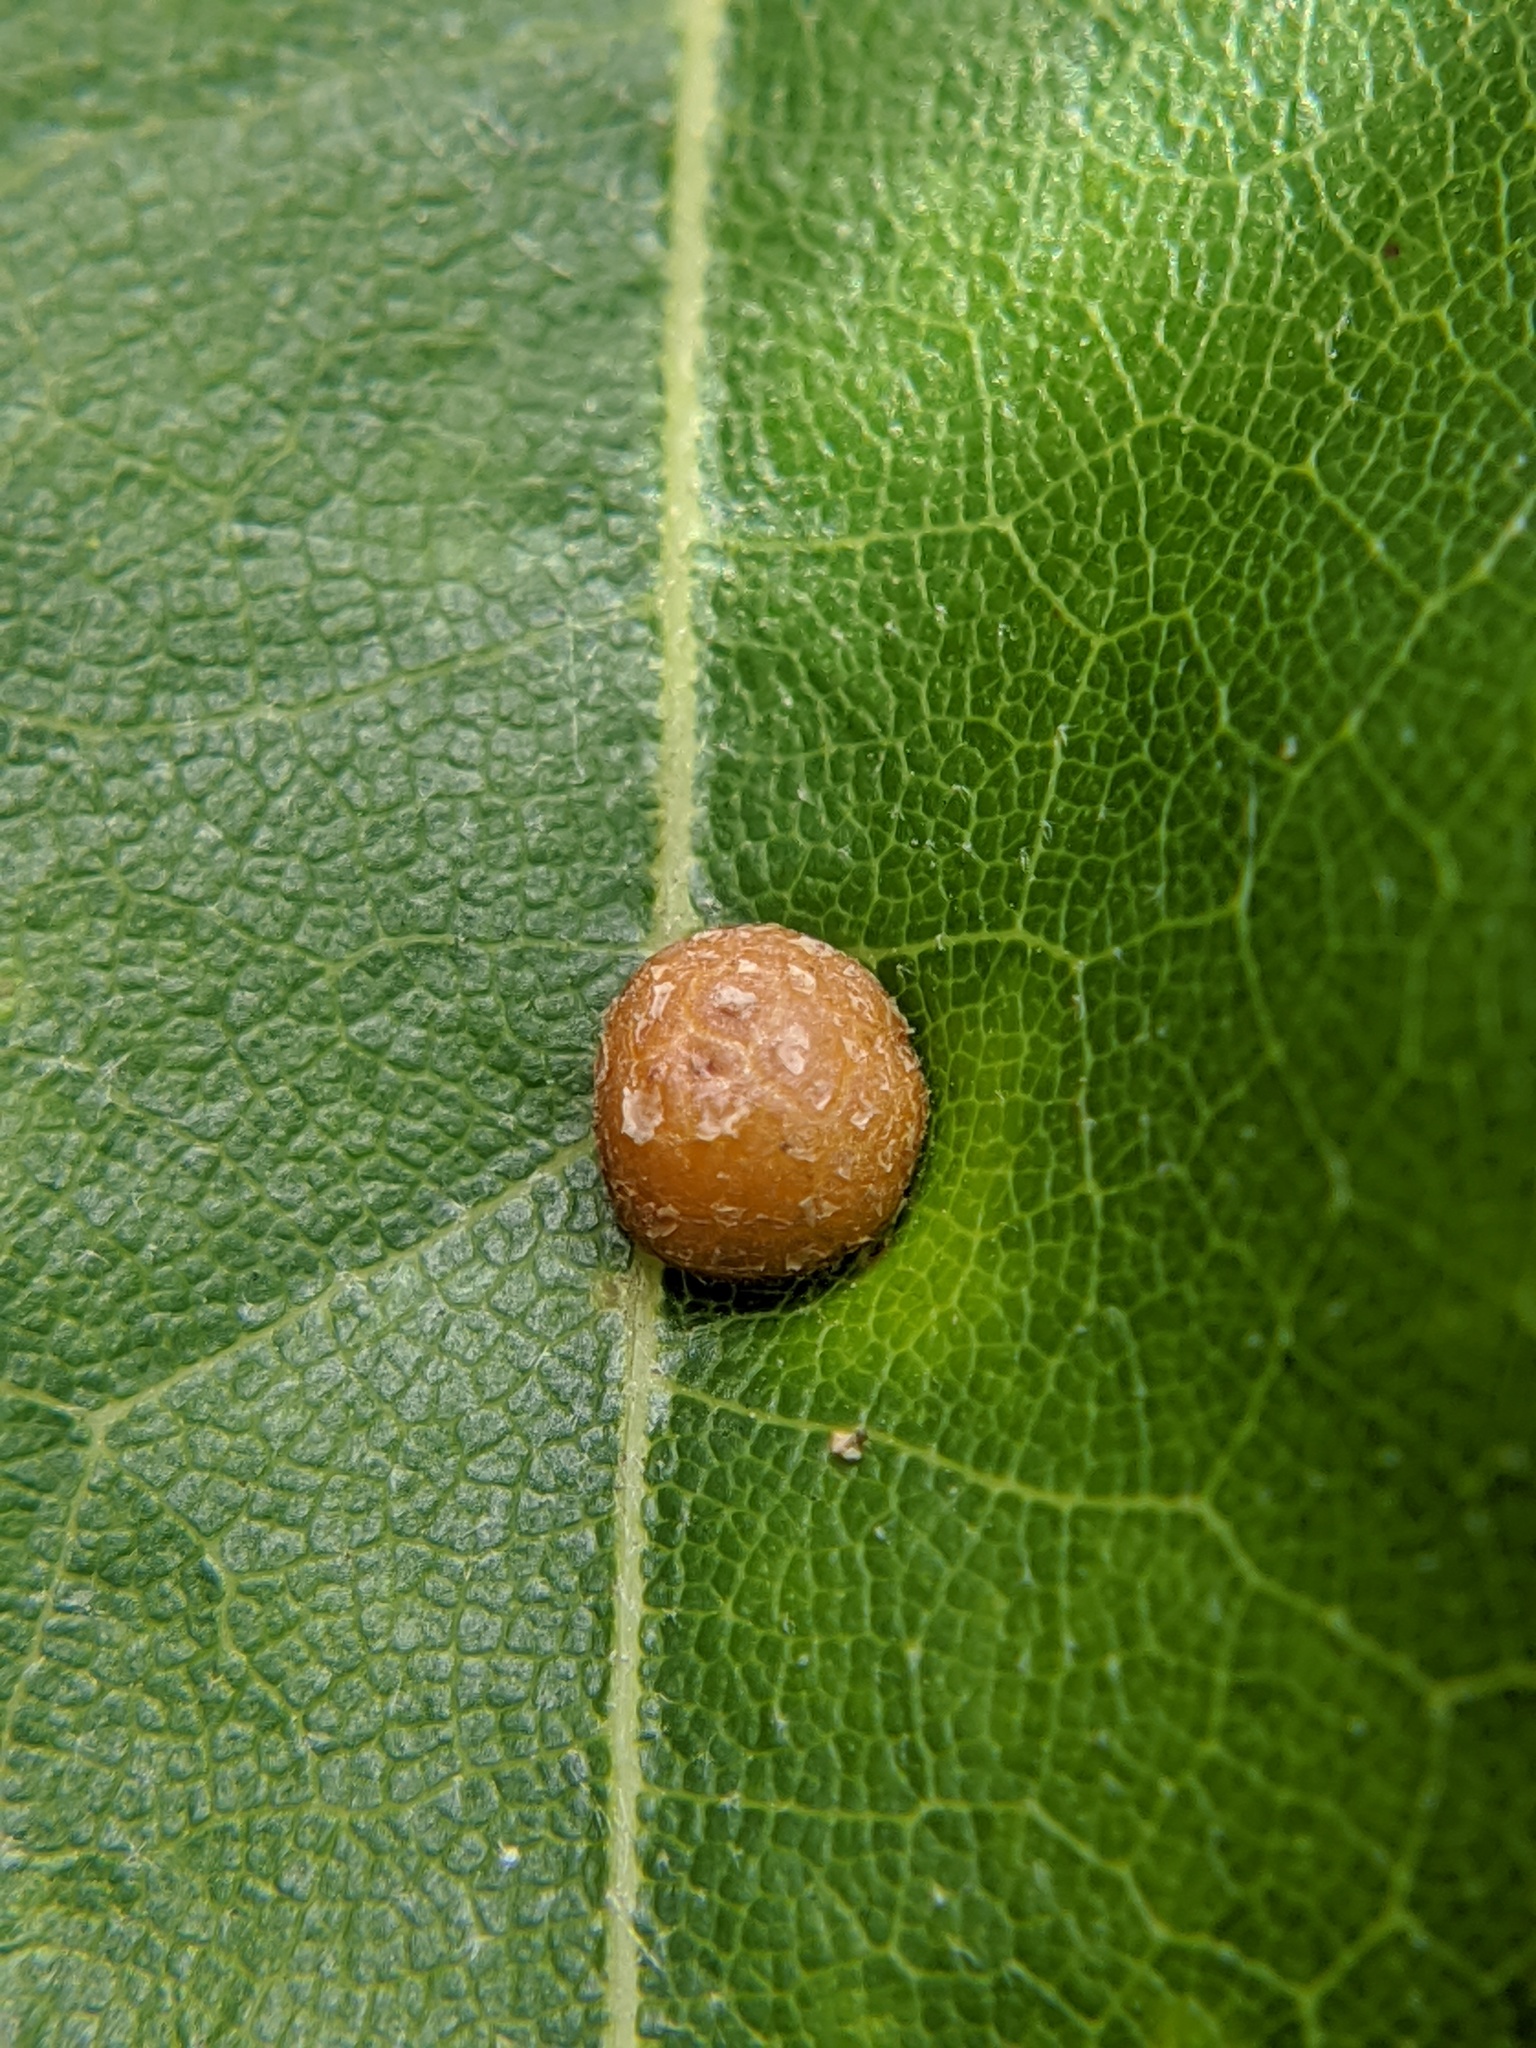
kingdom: Animalia
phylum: Arthropoda
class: Insecta
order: Diptera
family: Cecidomyiidae
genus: Polystepha
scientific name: Polystepha pilulae
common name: Oak leaf gall midge
